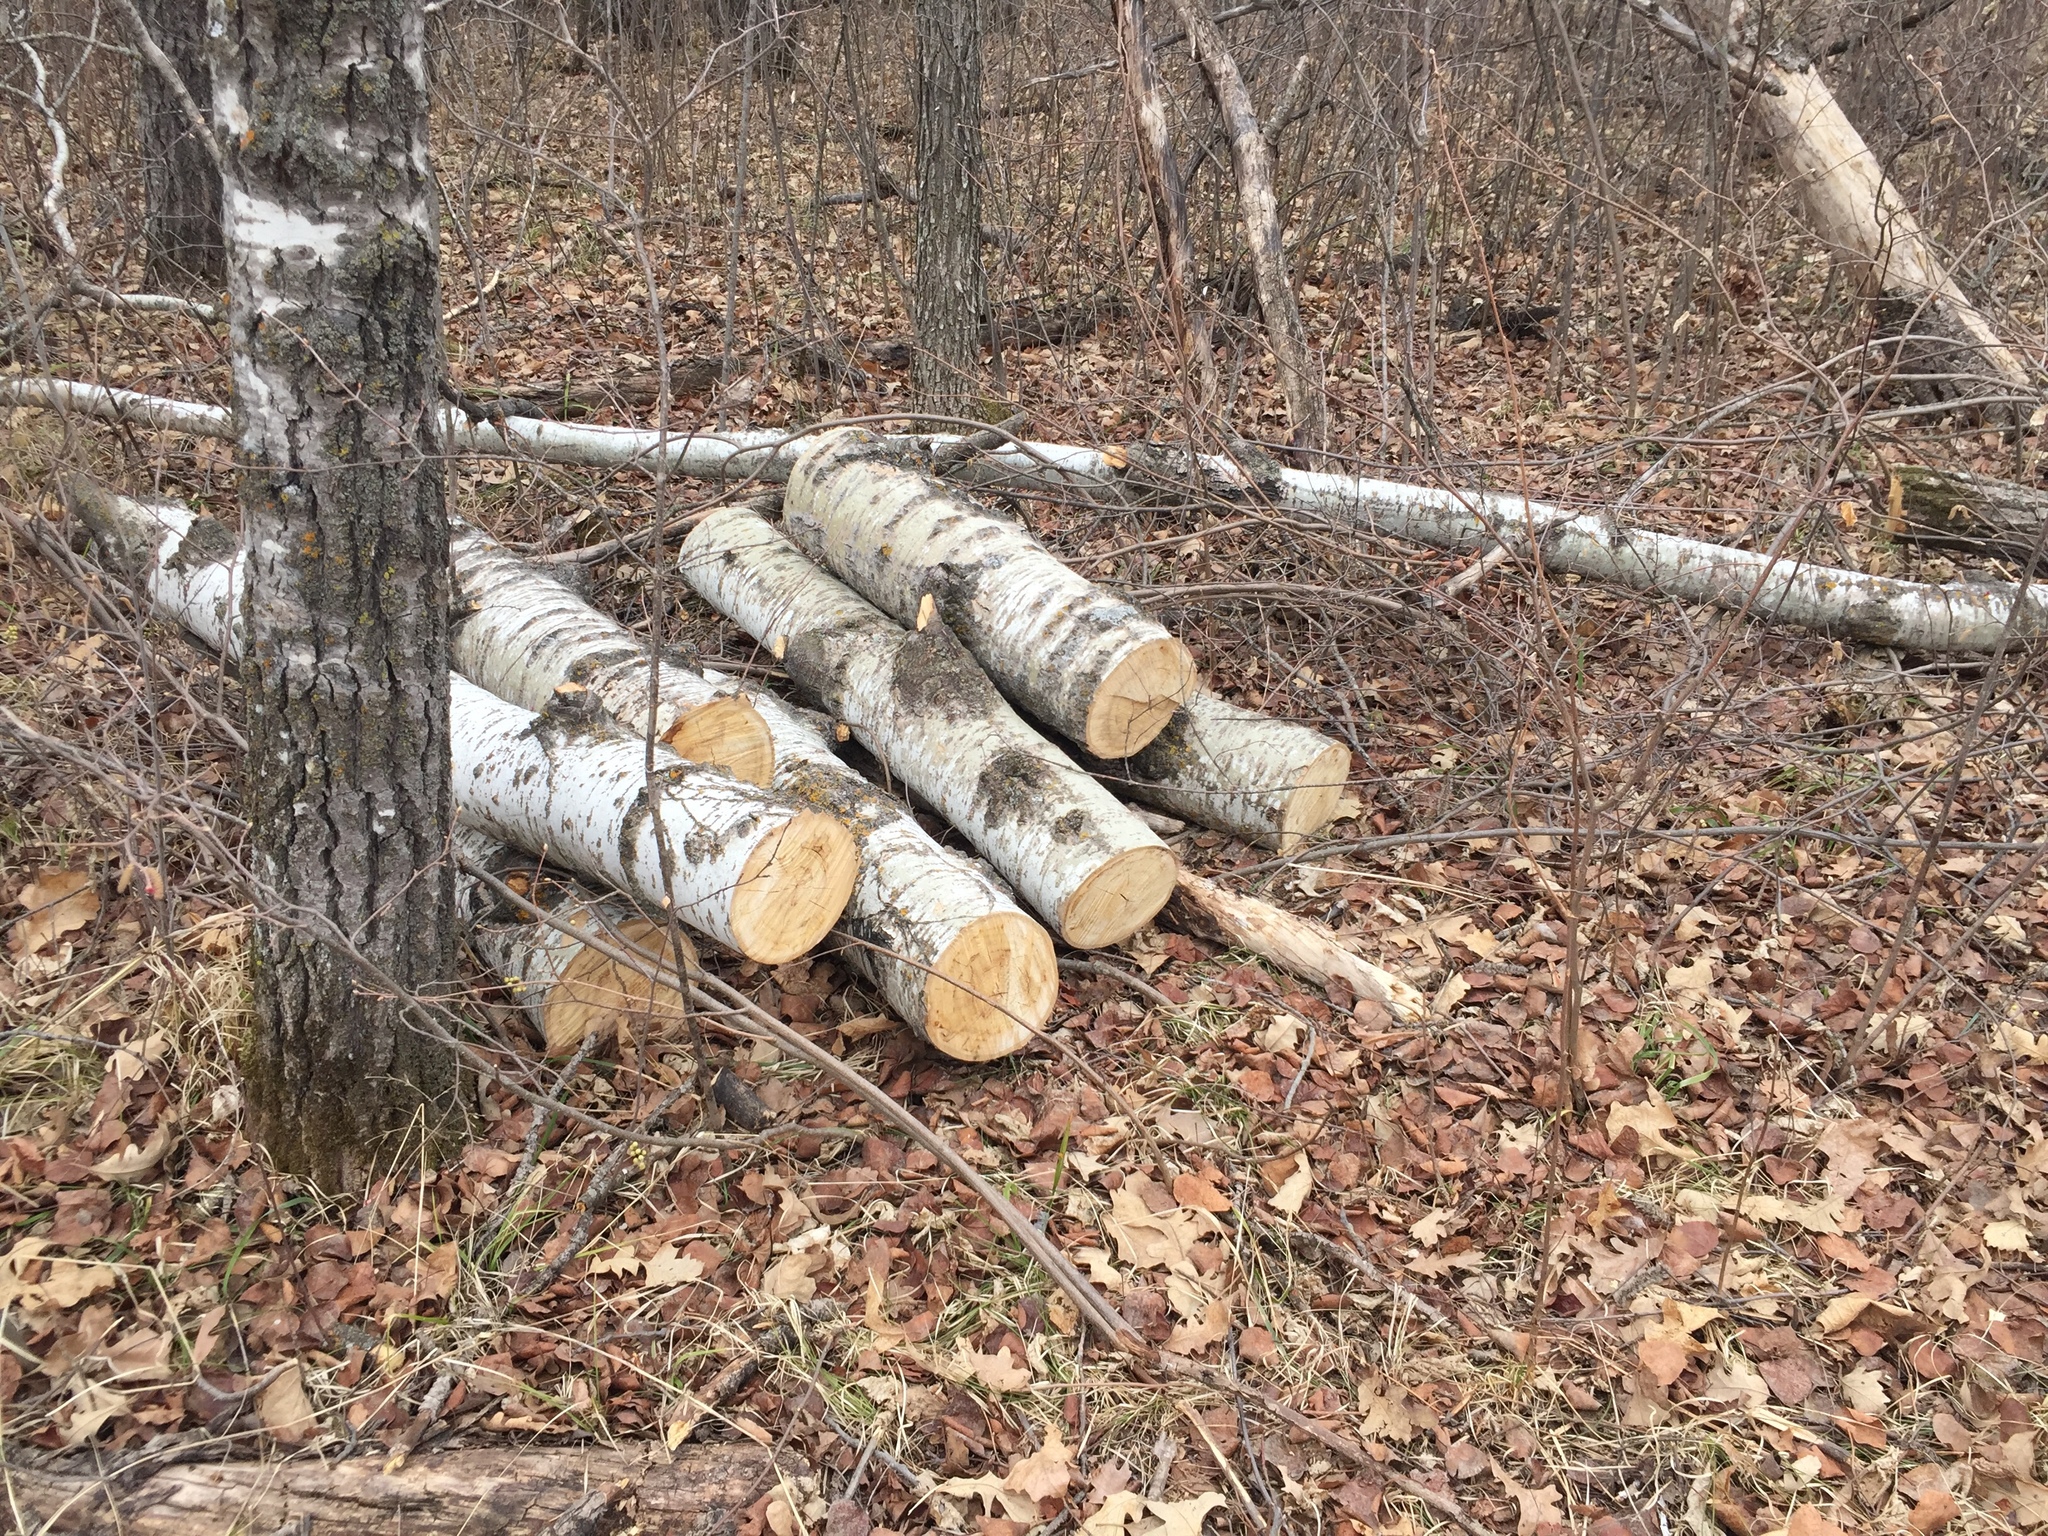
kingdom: Plantae
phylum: Tracheophyta
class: Magnoliopsida
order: Malpighiales
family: Salicaceae
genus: Populus
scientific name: Populus tremuloides
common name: Quaking aspen
